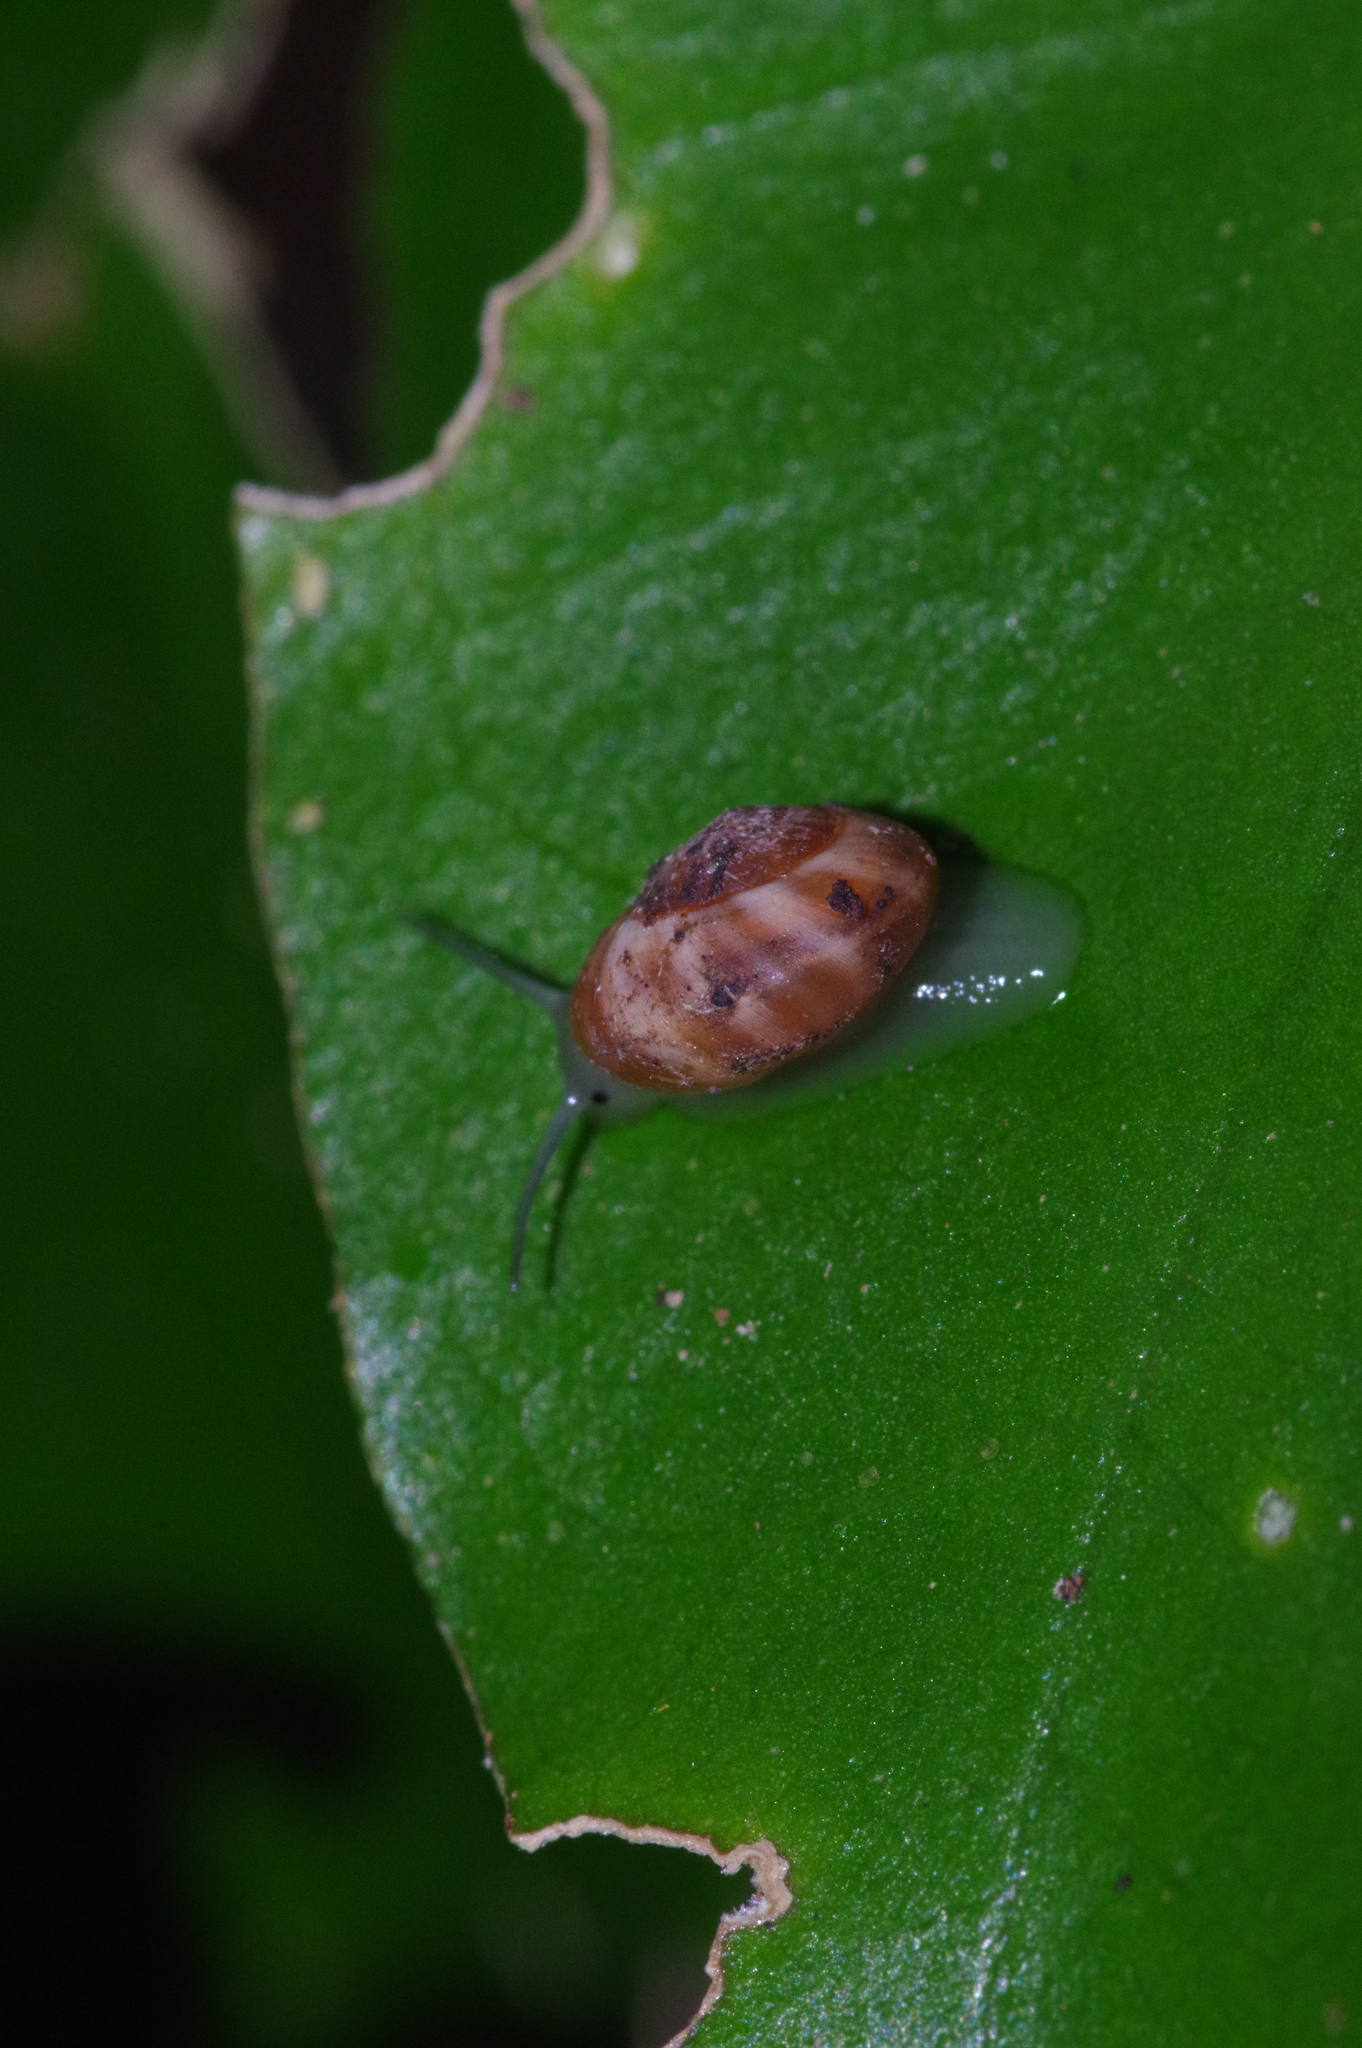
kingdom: Animalia
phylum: Mollusca
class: Gastropoda
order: Cycloneritida
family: Helicinidae
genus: Aphanoconia
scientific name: Aphanoconia verecunda
